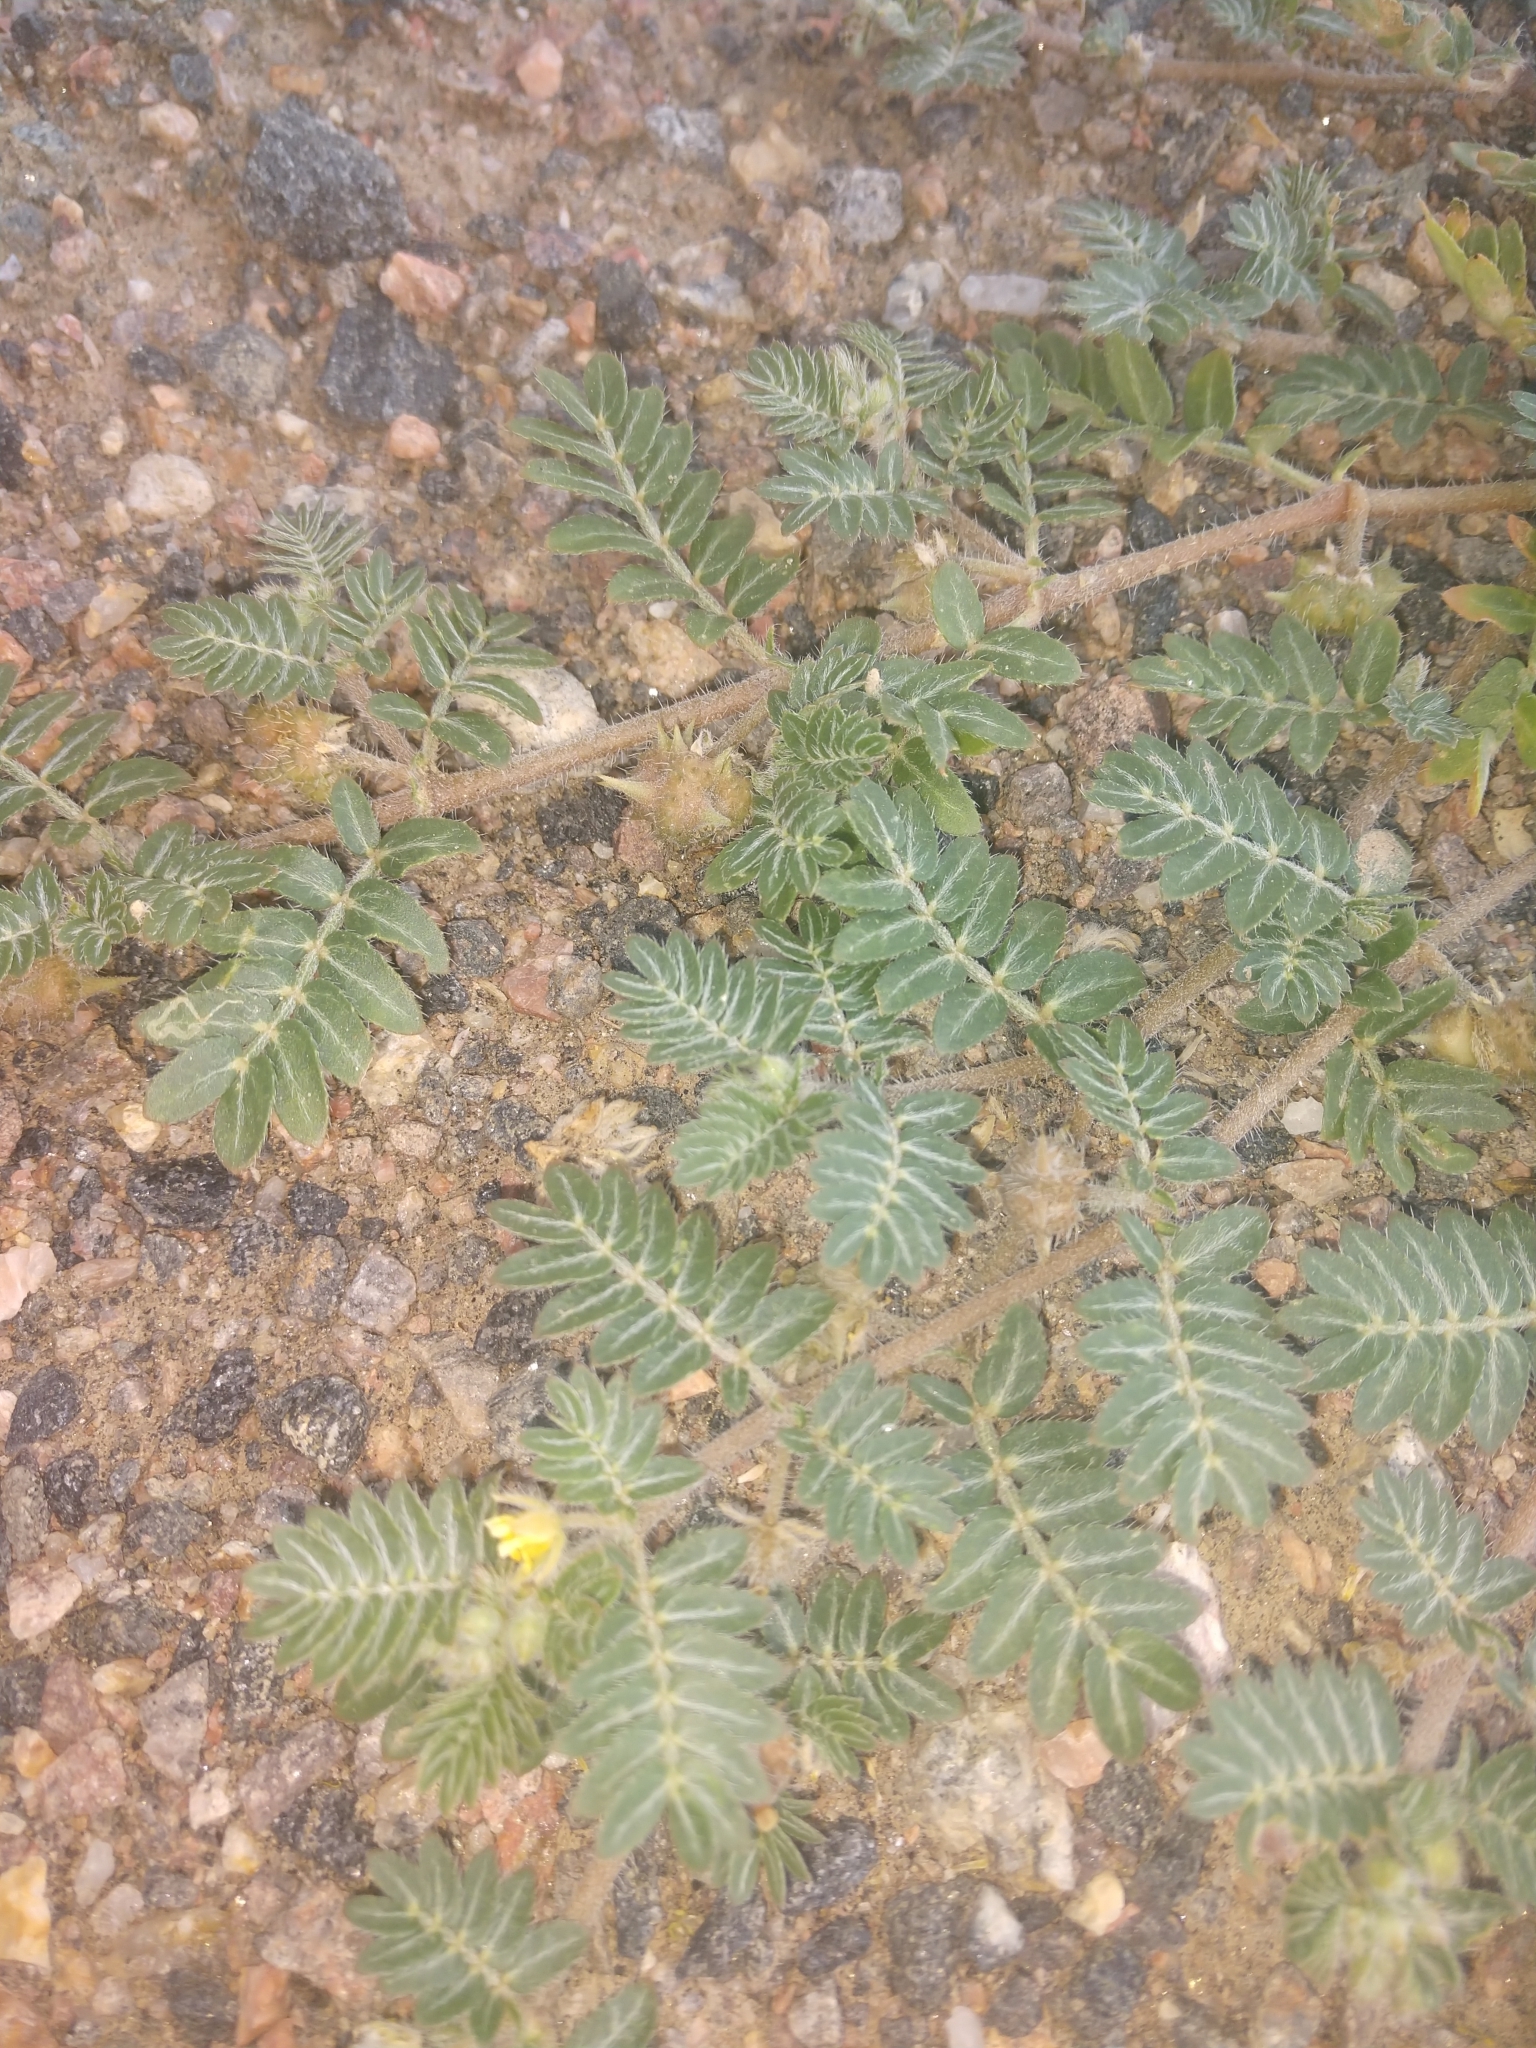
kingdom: Plantae
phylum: Tracheophyta
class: Magnoliopsida
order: Zygophyllales
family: Zygophyllaceae
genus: Tribulus
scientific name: Tribulus terrestris
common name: Puncturevine
